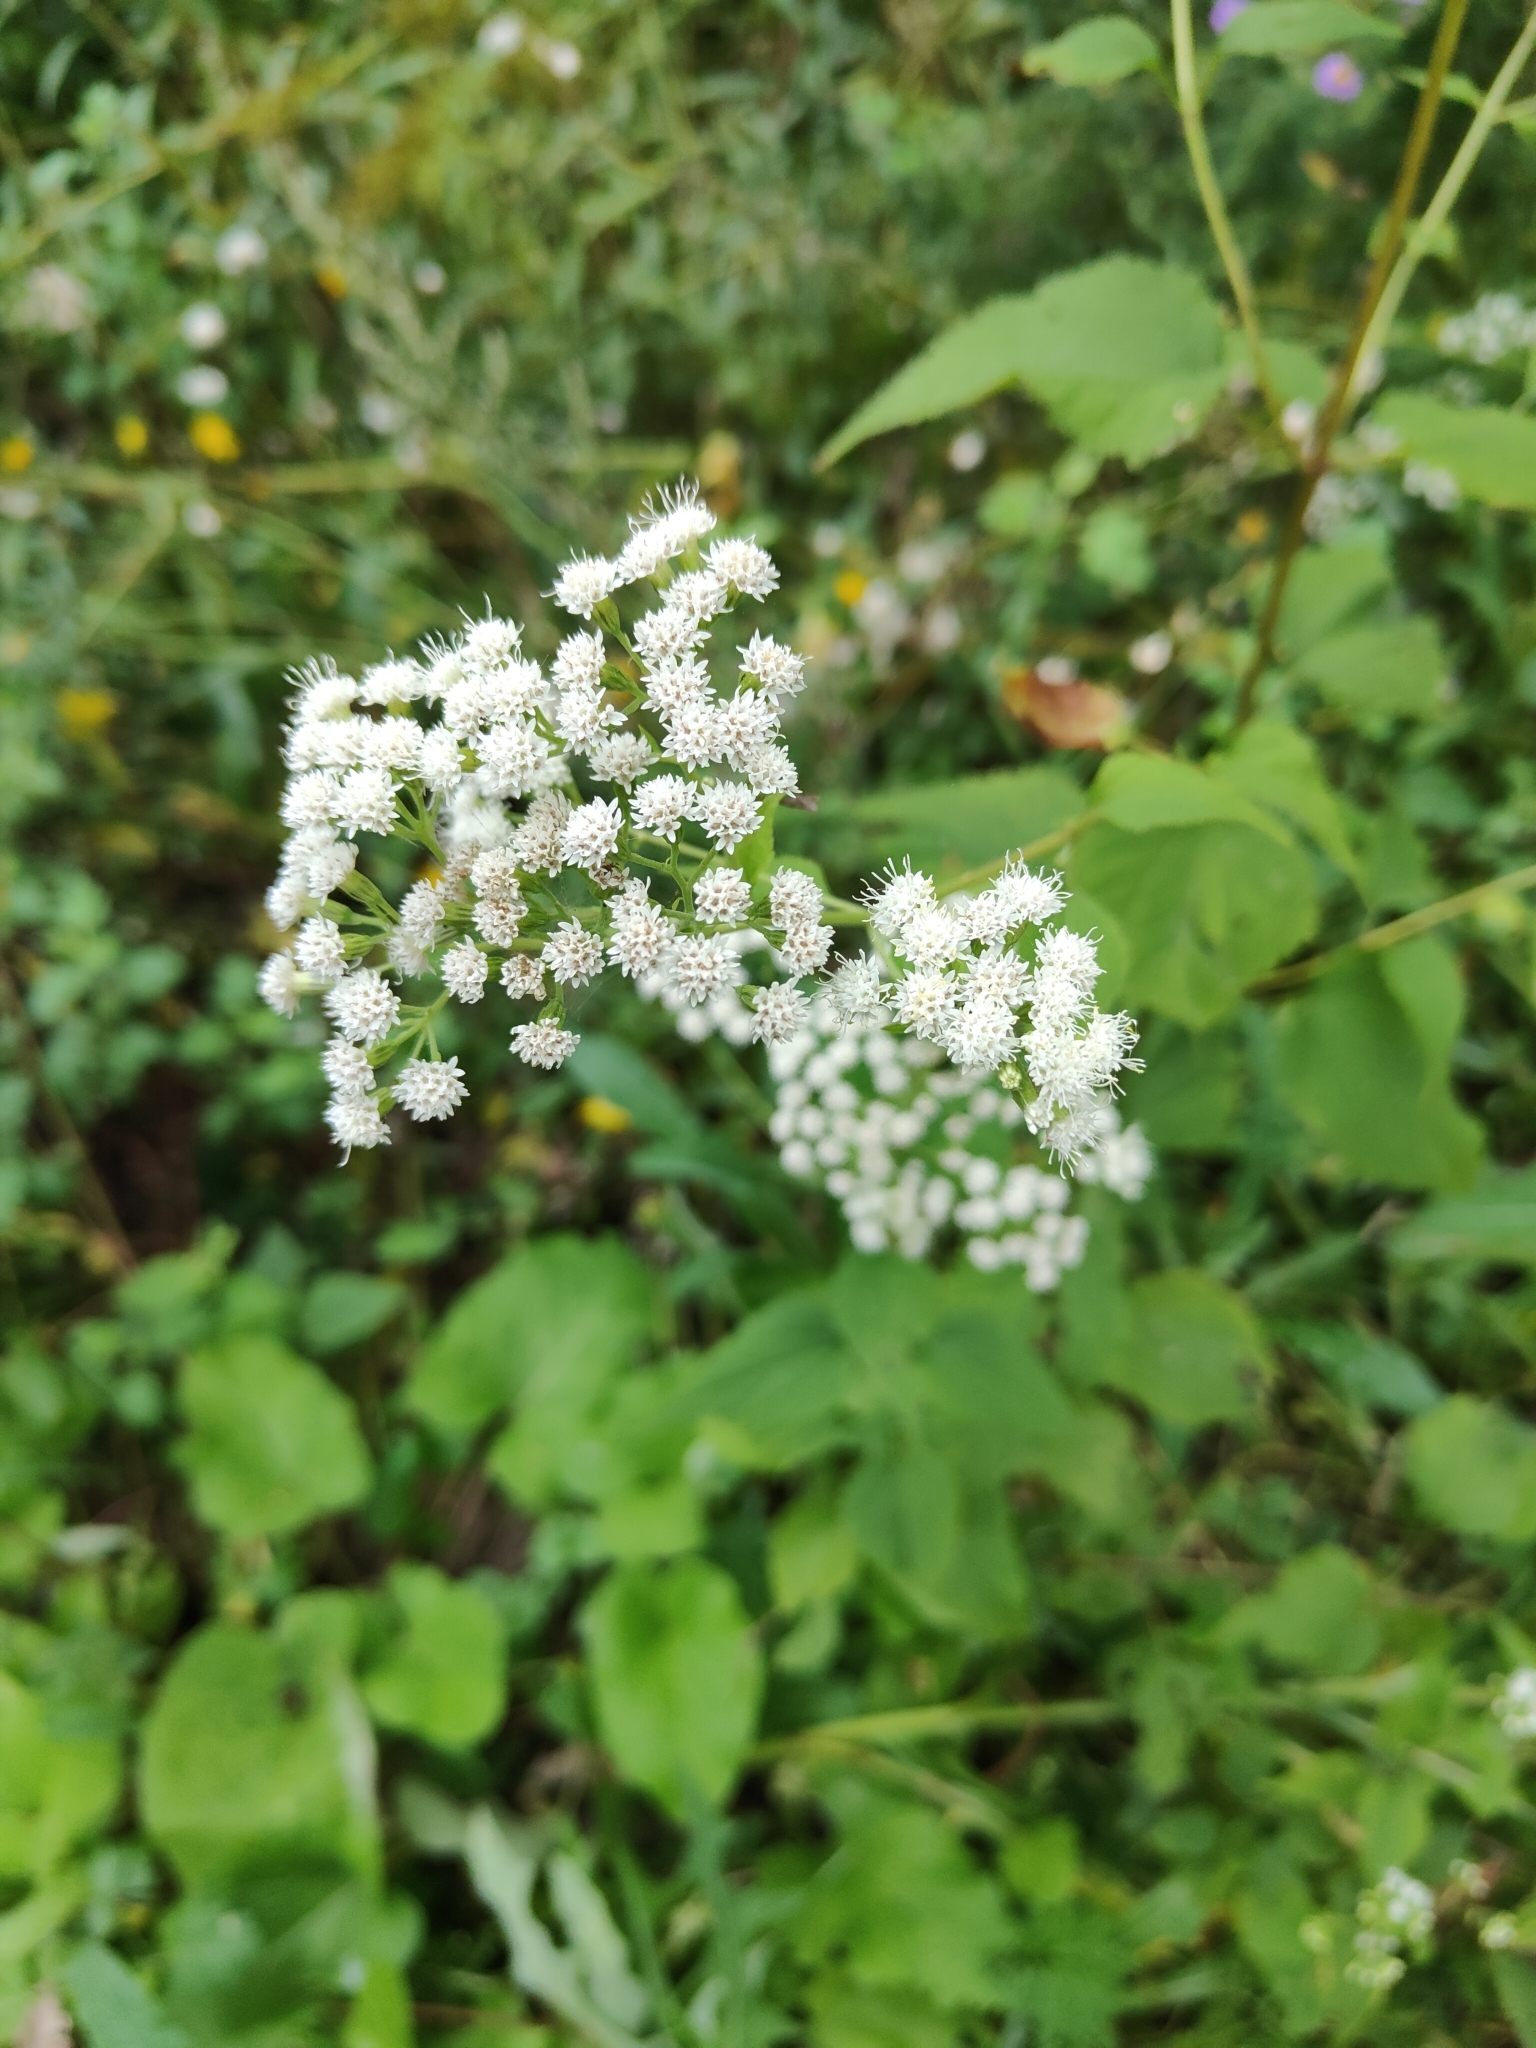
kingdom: Plantae
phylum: Tracheophyta
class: Magnoliopsida
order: Asterales
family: Asteraceae
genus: Ageratina
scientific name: Ageratina altissima
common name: White snakeroot
